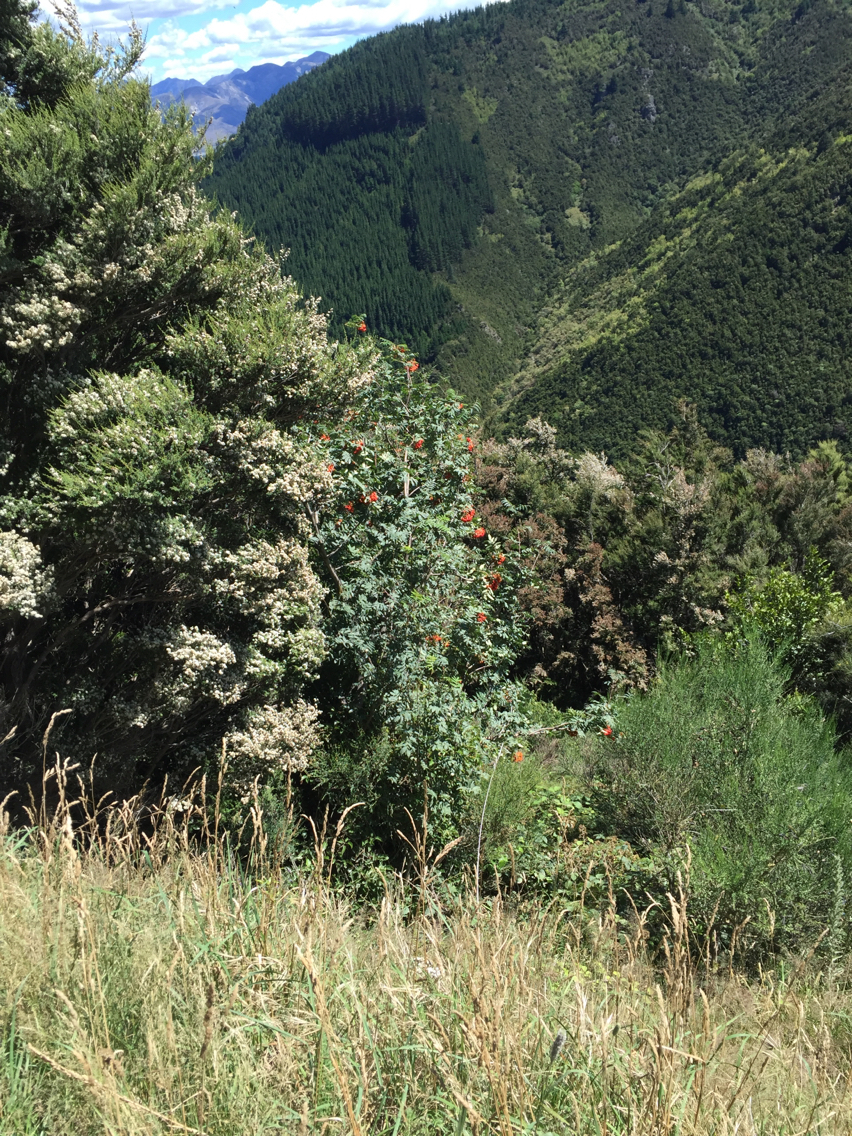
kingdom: Plantae
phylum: Tracheophyta
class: Magnoliopsida
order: Rosales
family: Rosaceae
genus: Sorbus
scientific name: Sorbus aucuparia
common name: Rowan
